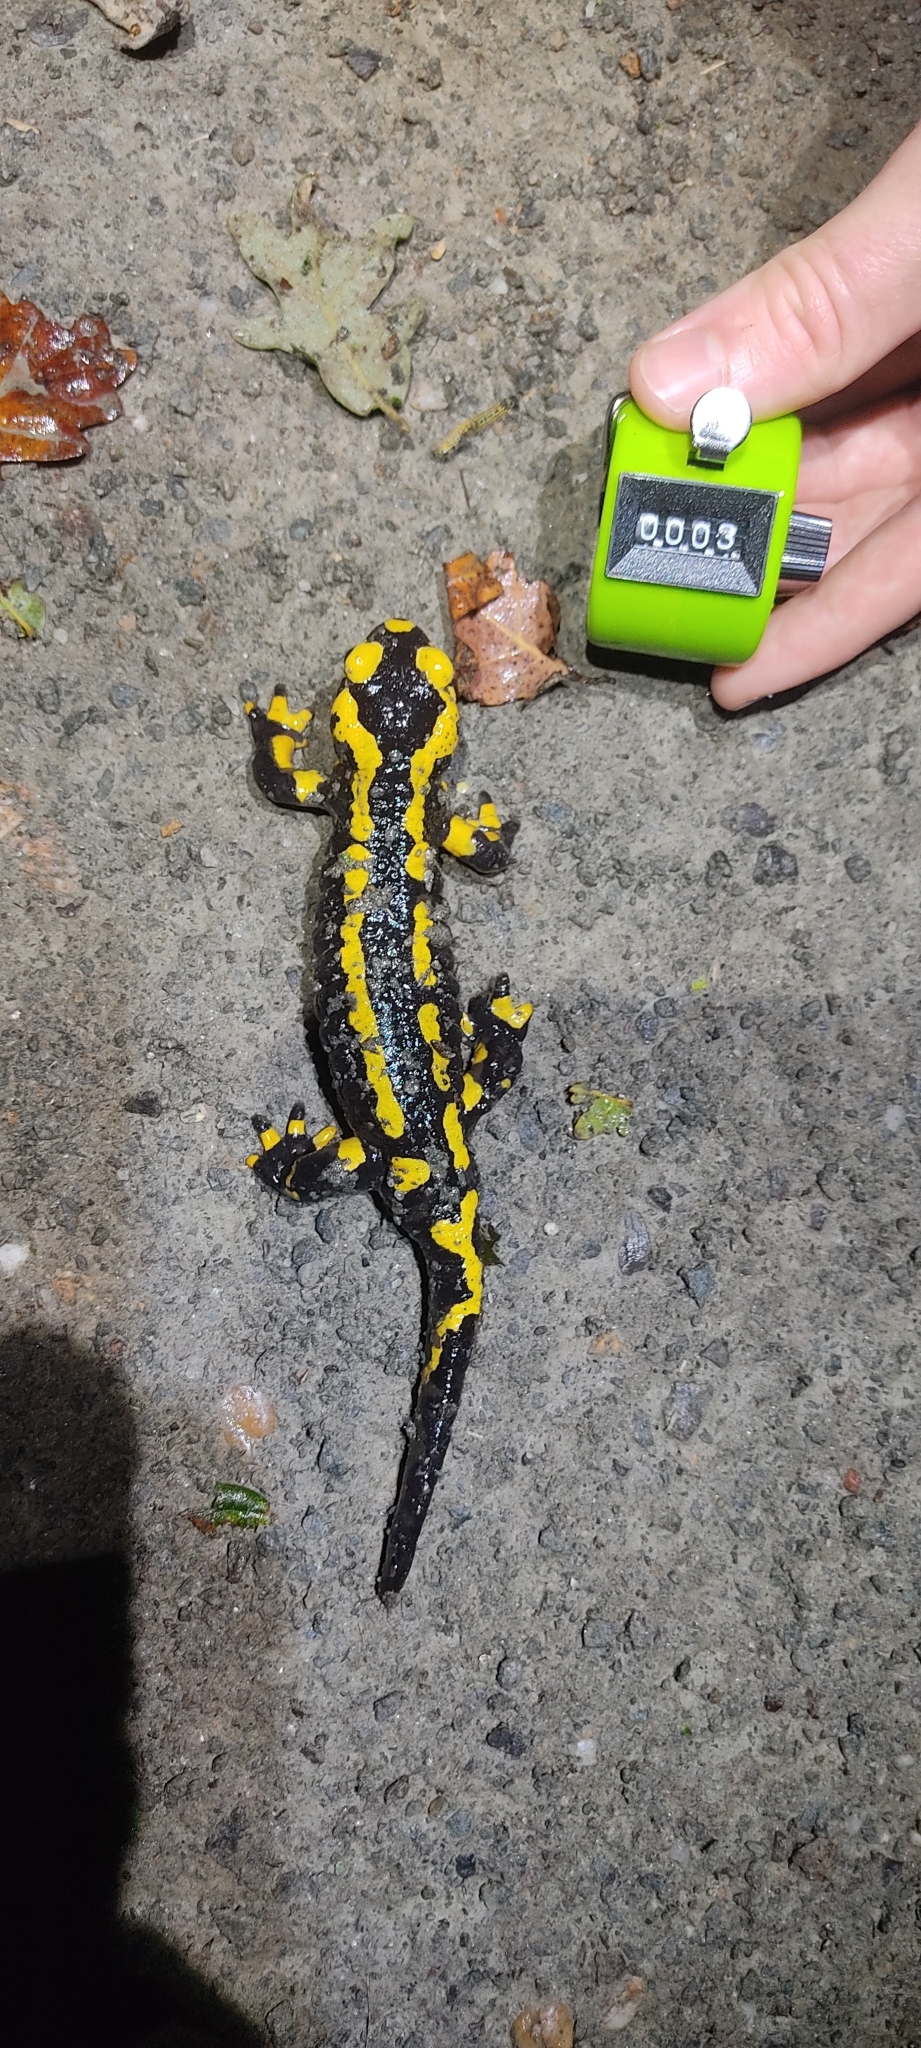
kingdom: Animalia
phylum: Chordata
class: Amphibia
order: Caudata
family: Salamandridae
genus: Salamandra
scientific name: Salamandra salamandra
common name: Fire salamander
